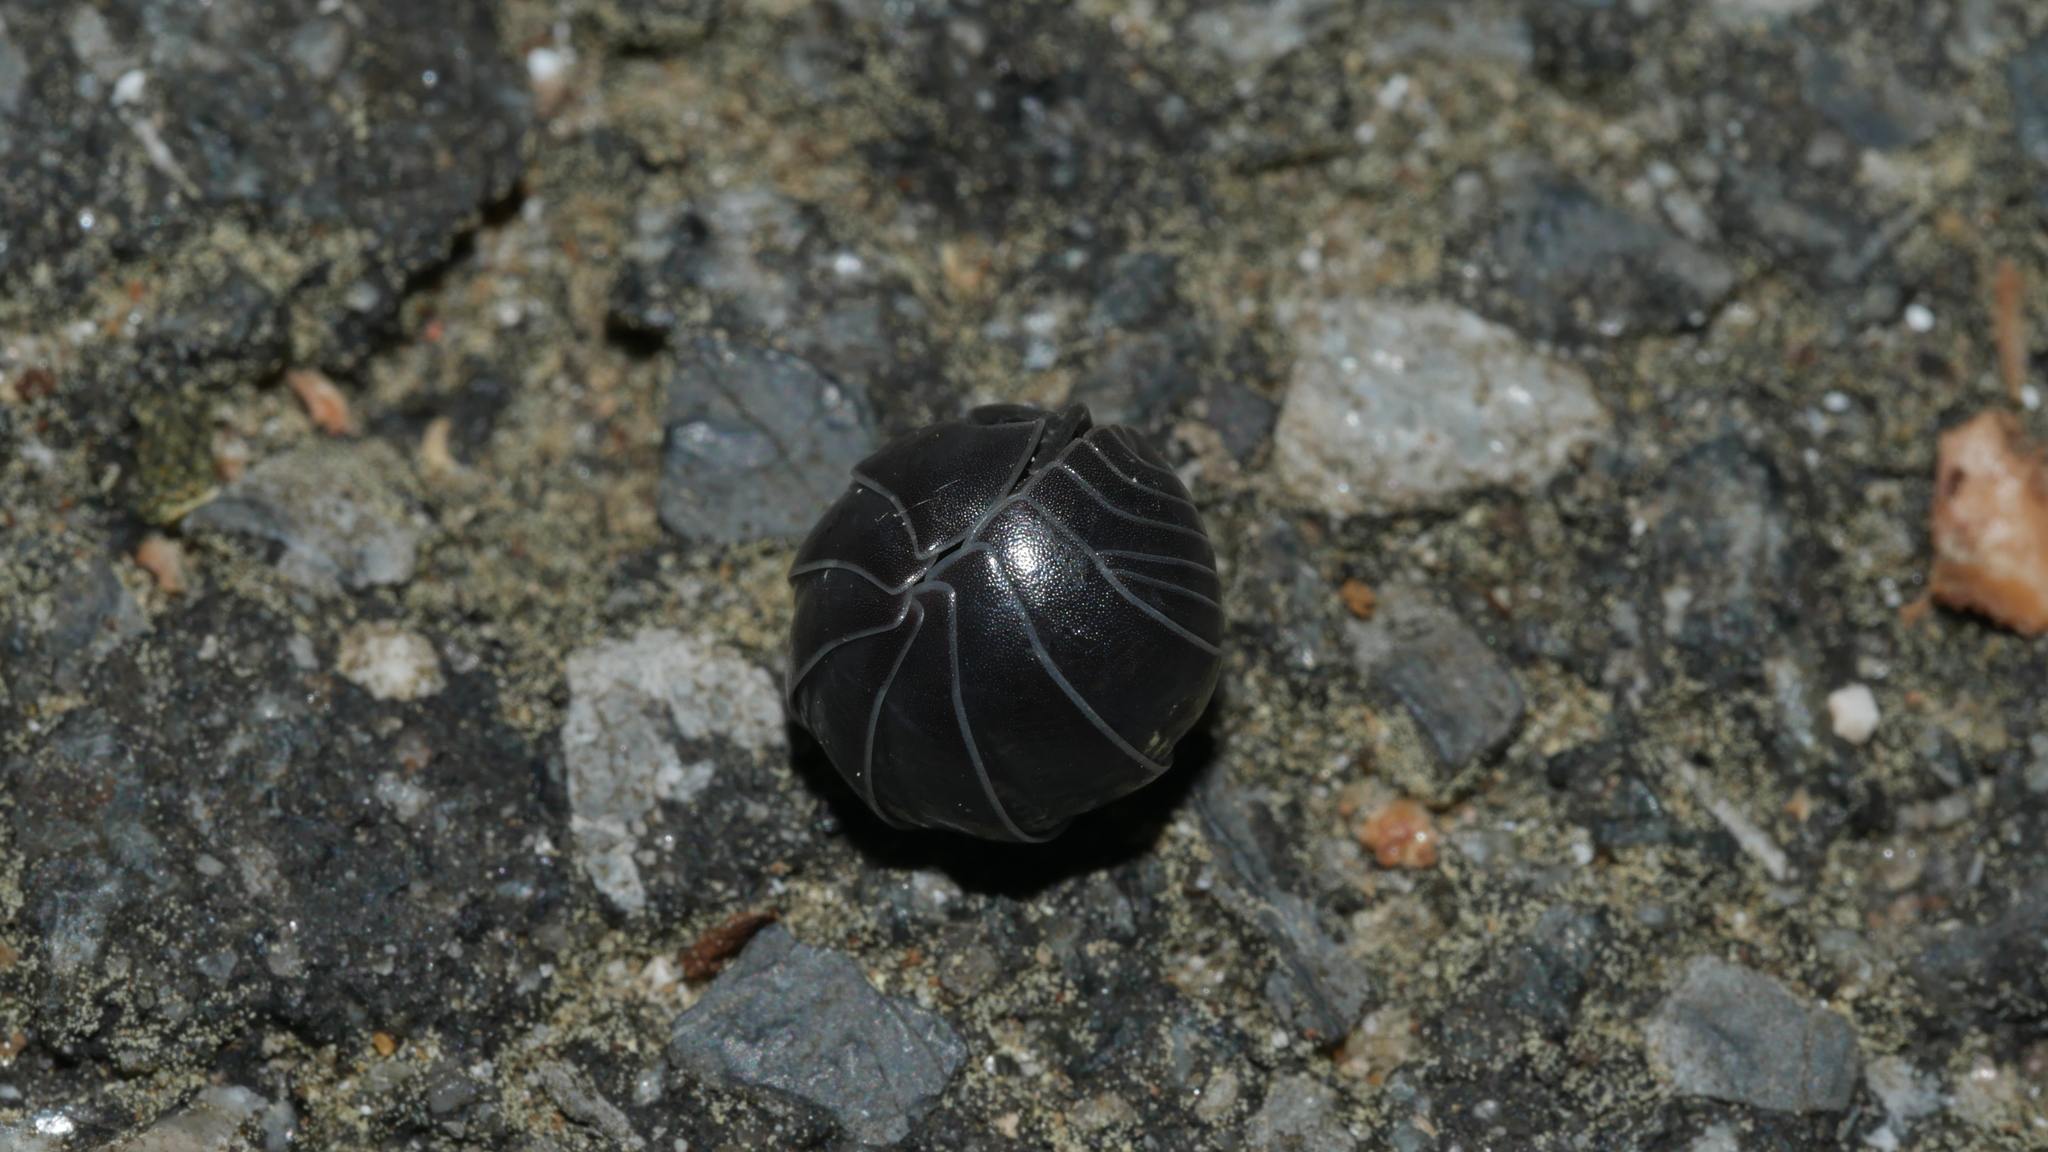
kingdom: Animalia
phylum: Arthropoda
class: Malacostraca
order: Isopoda
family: Armadillidiidae
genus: Armadillidium
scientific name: Armadillidium vulgare
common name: Common pill woodlouse
